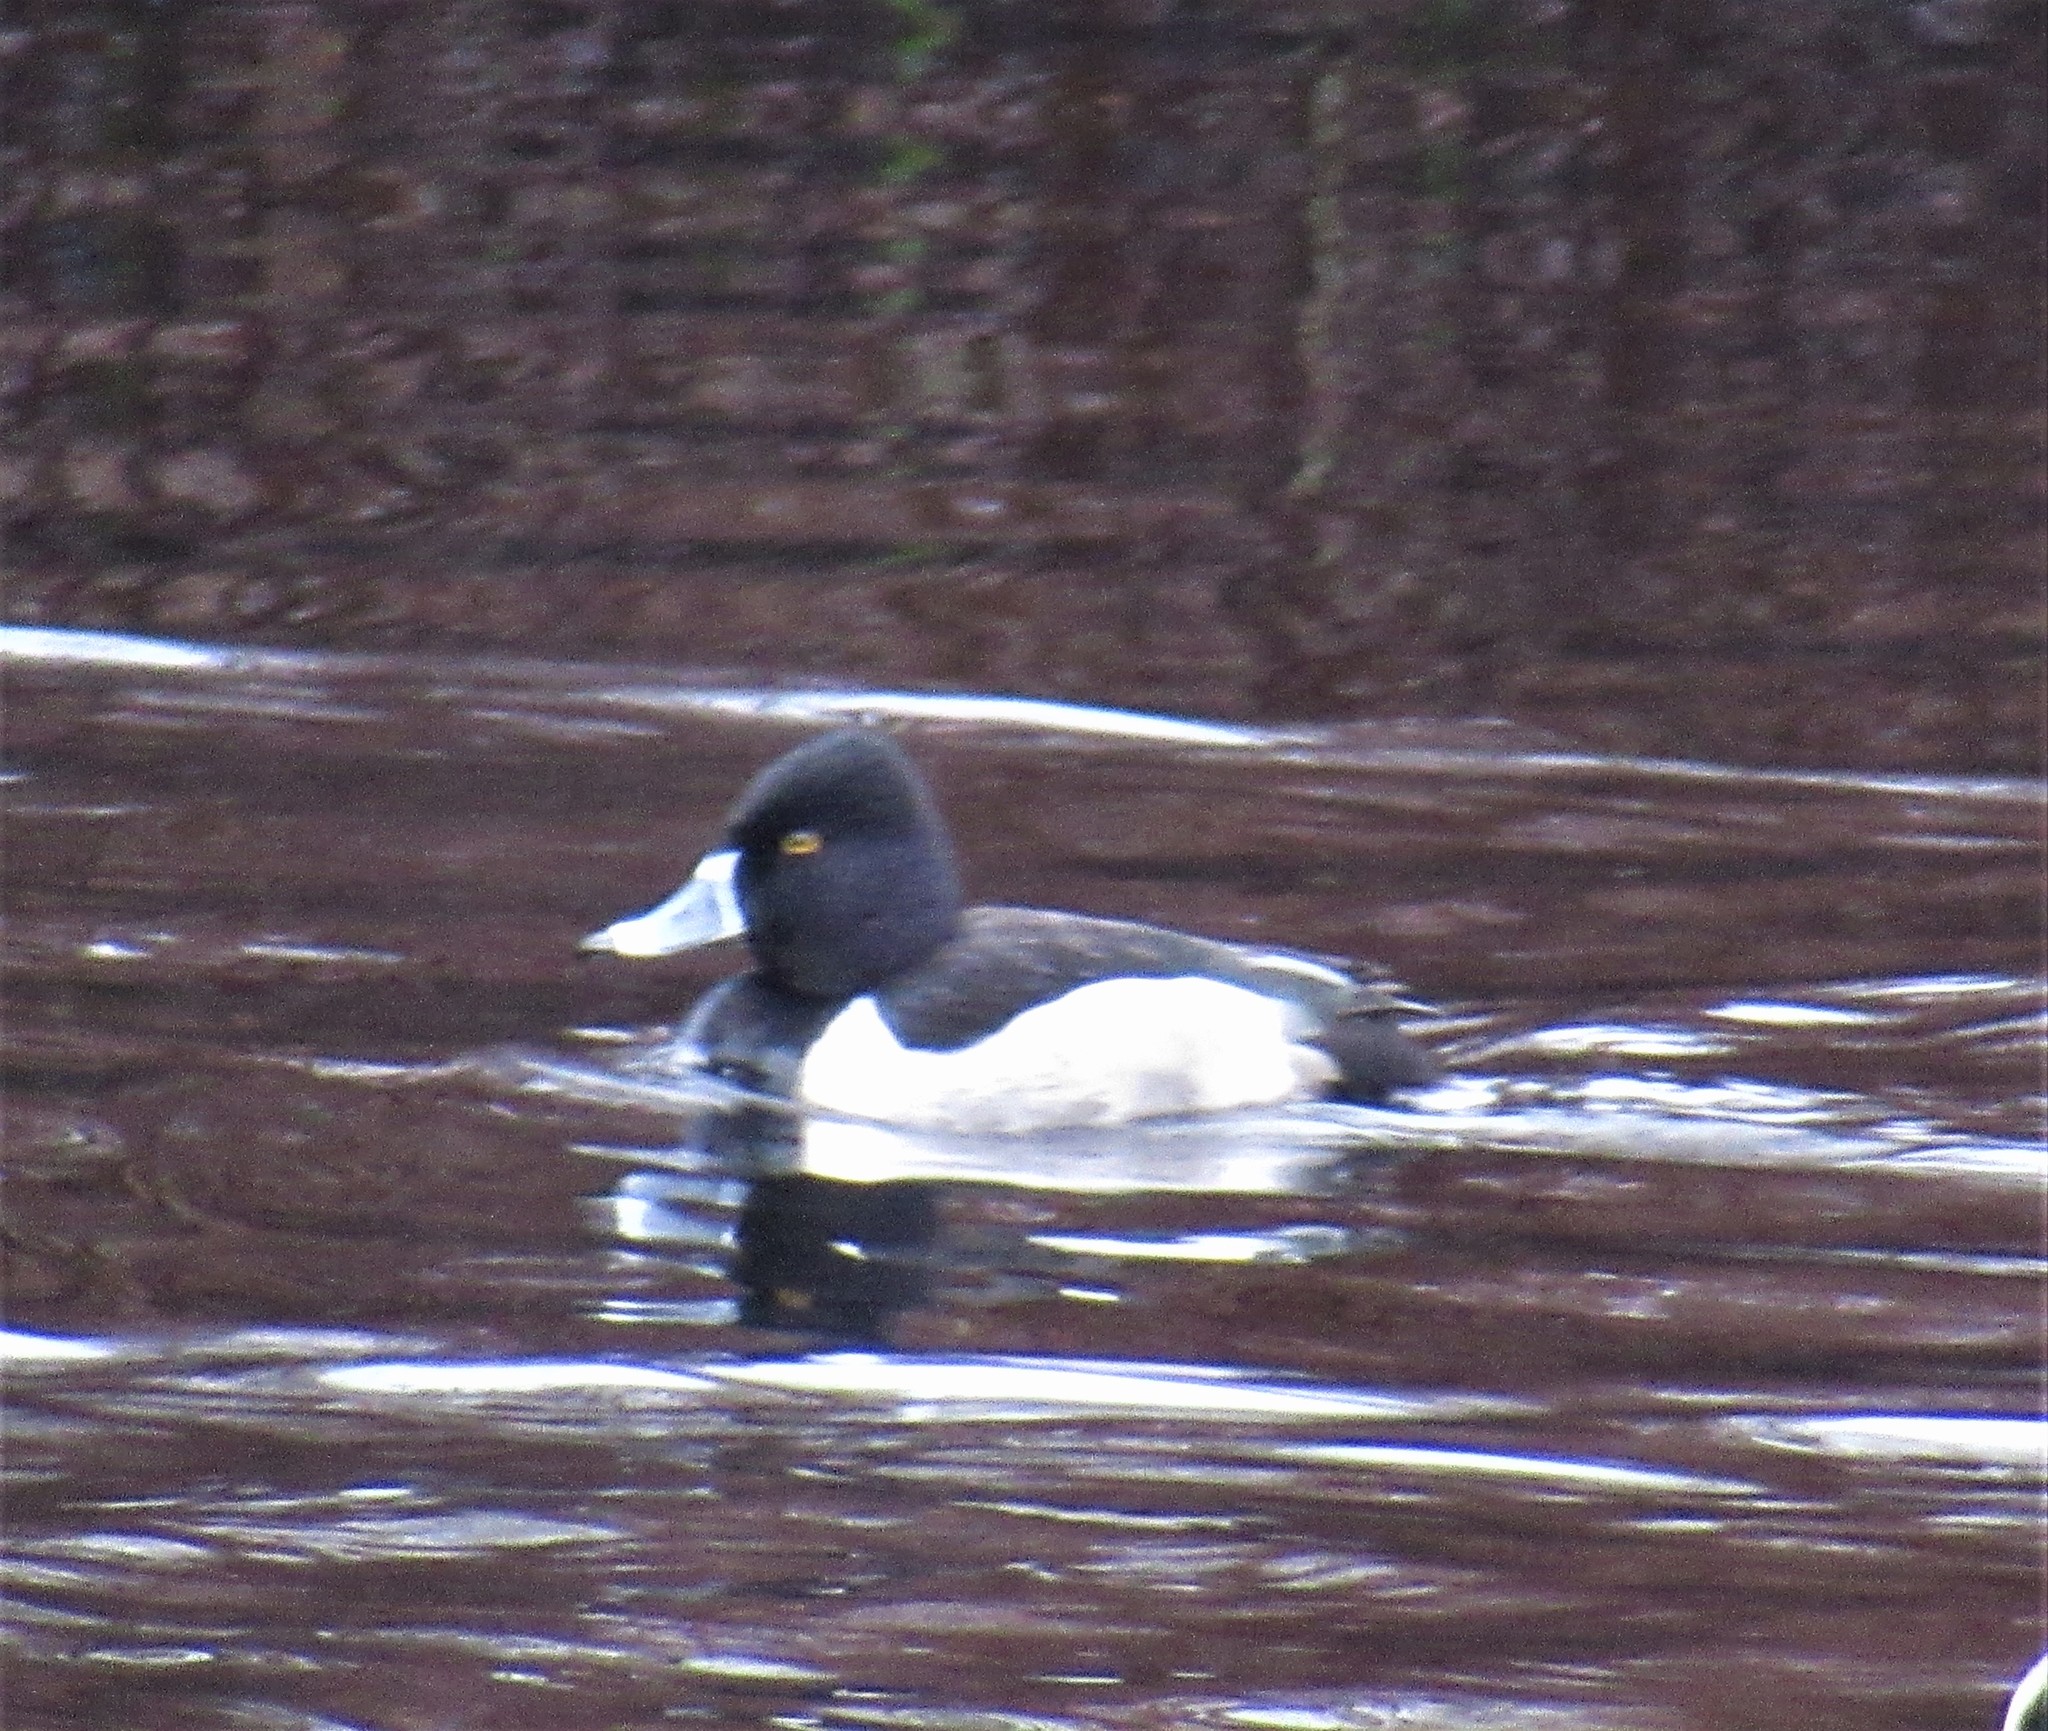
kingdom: Animalia
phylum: Chordata
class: Aves
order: Anseriformes
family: Anatidae
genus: Aythya
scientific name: Aythya collaris
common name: Ring-necked duck
